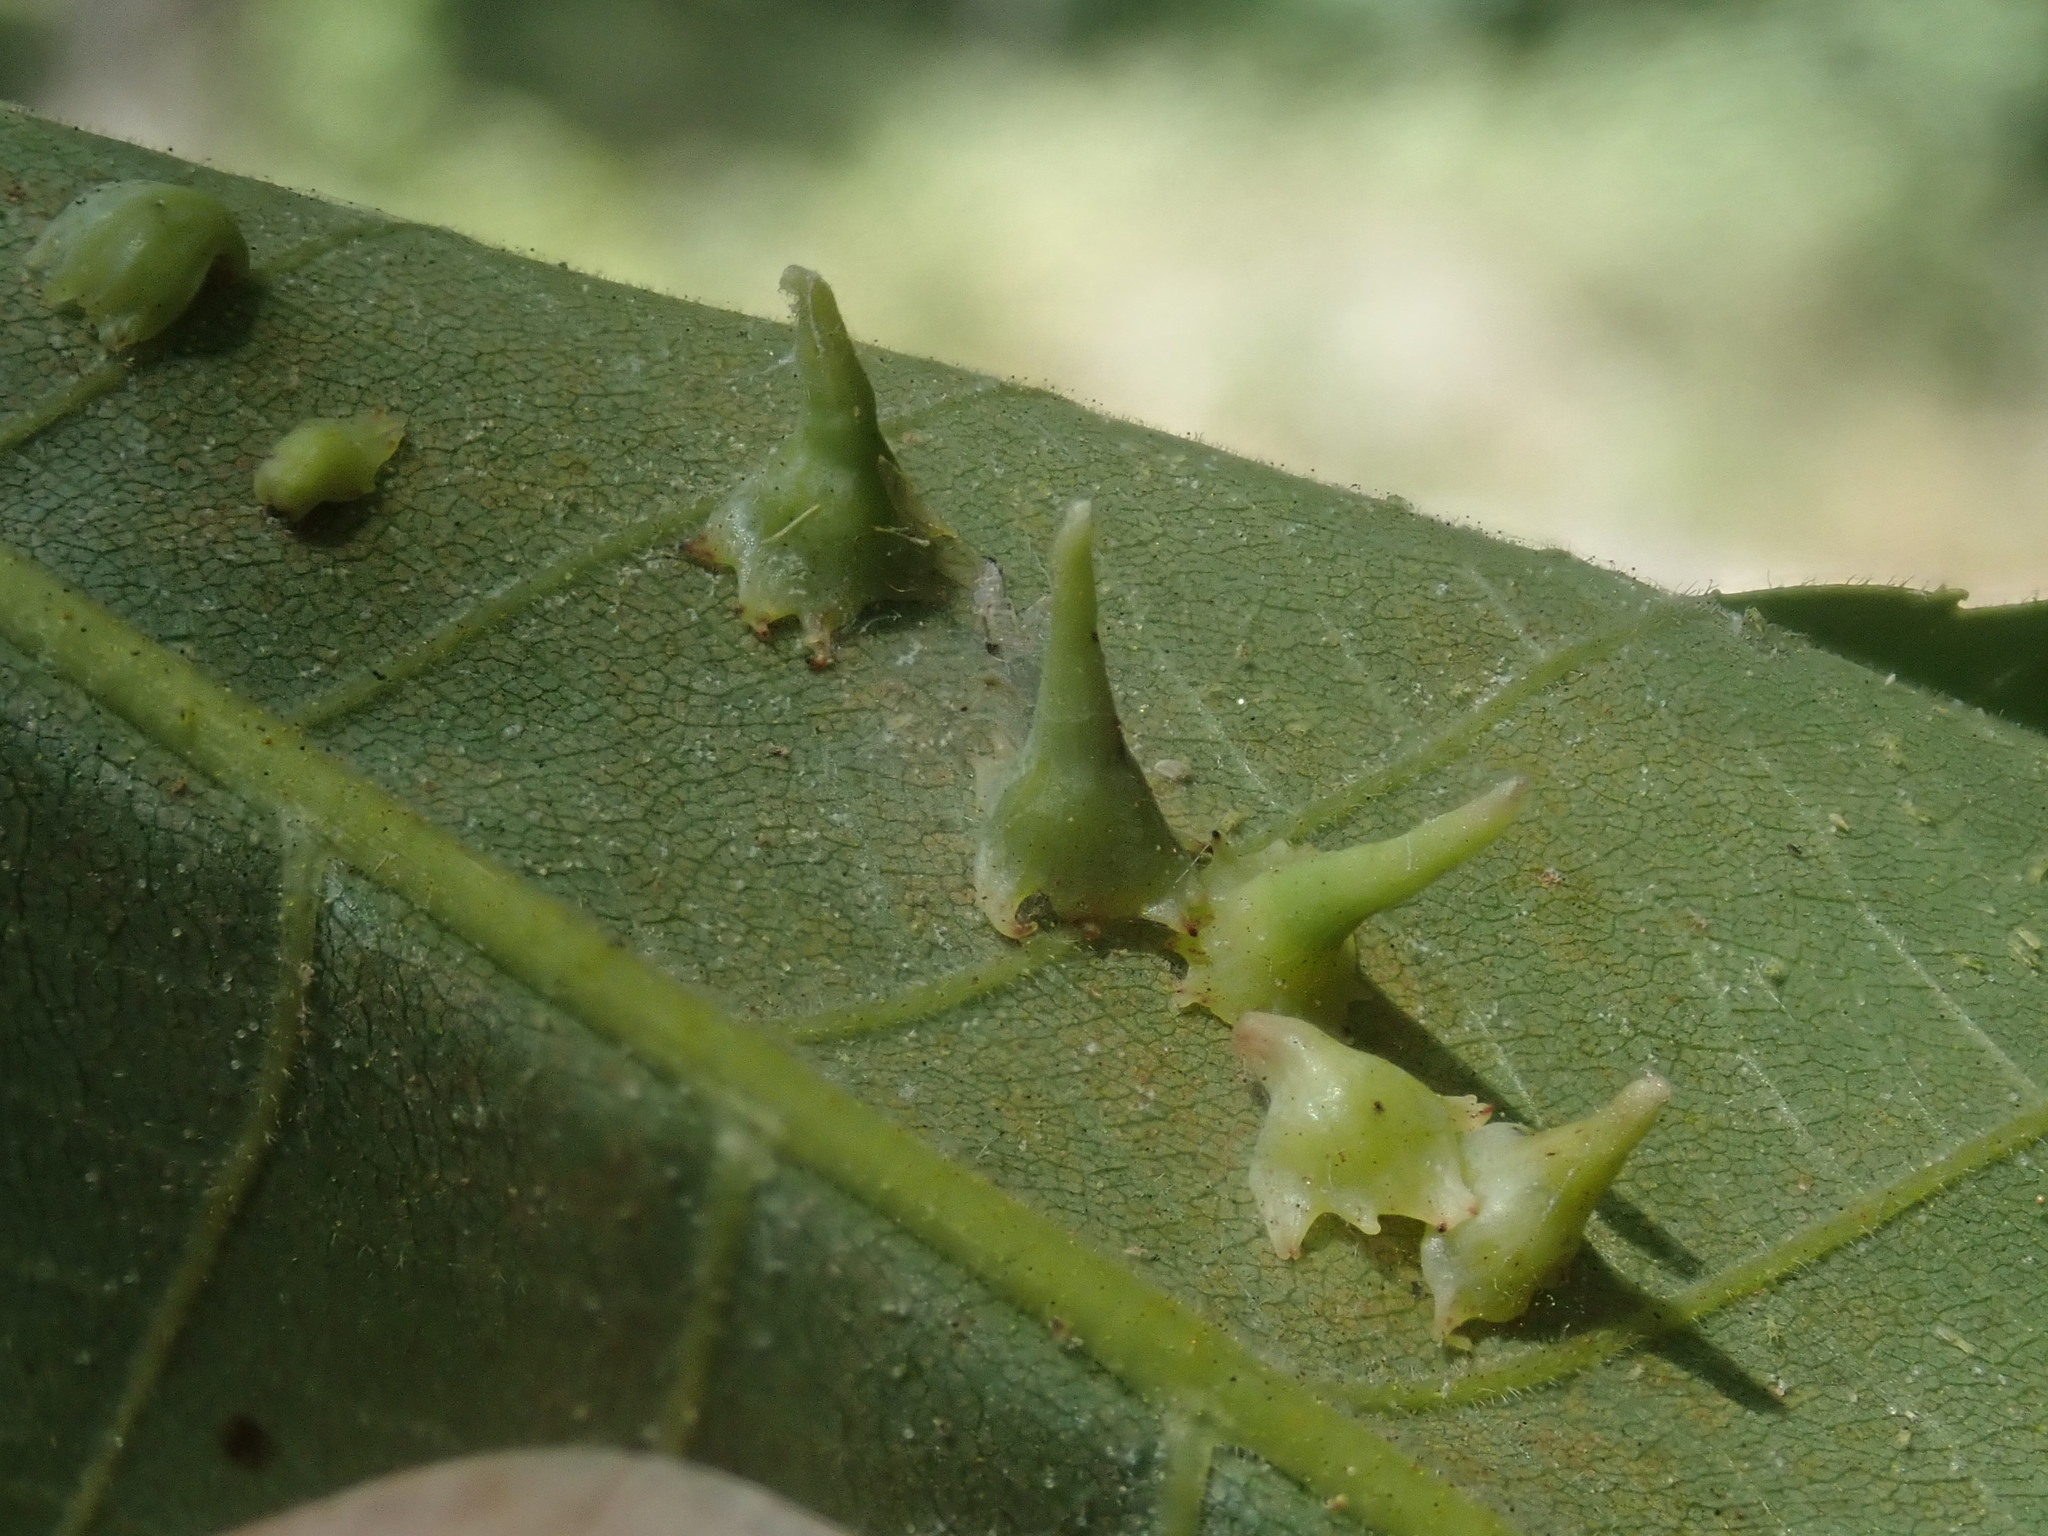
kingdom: Animalia
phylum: Arthropoda
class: Insecta
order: Diptera
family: Cecidomyiidae
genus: Caryomyia
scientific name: Caryomyia stellata
